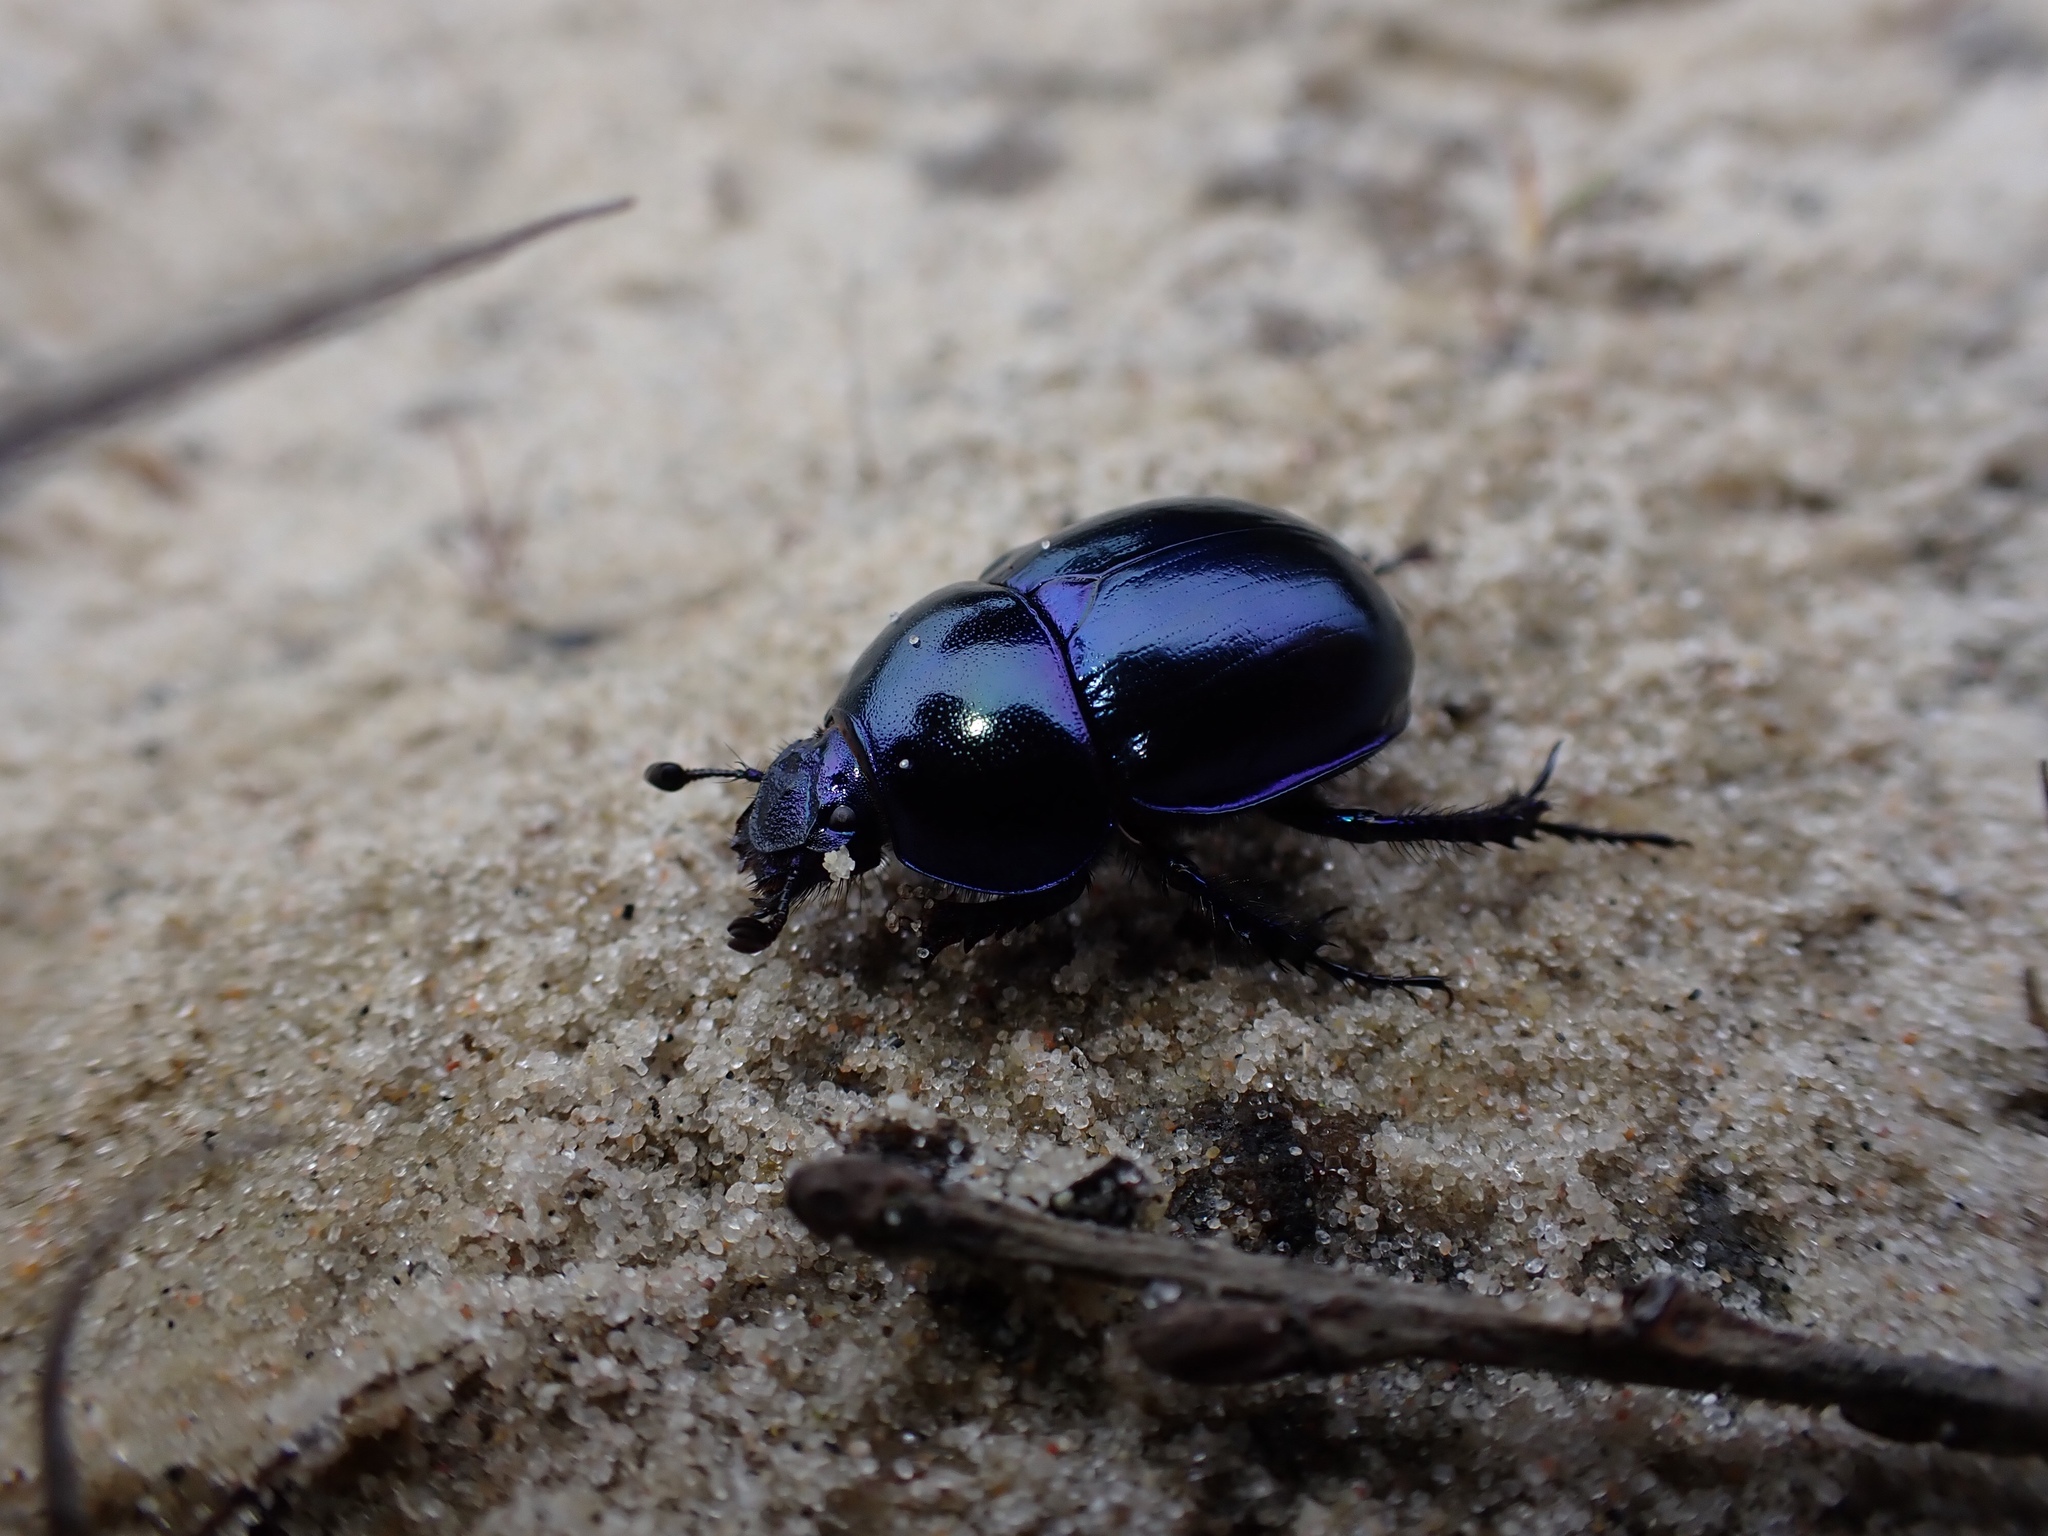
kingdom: Animalia
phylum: Arthropoda
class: Insecta
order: Coleoptera
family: Geotrupidae
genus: Trypocopris
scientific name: Trypocopris vernalis
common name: Spring dumbledor
